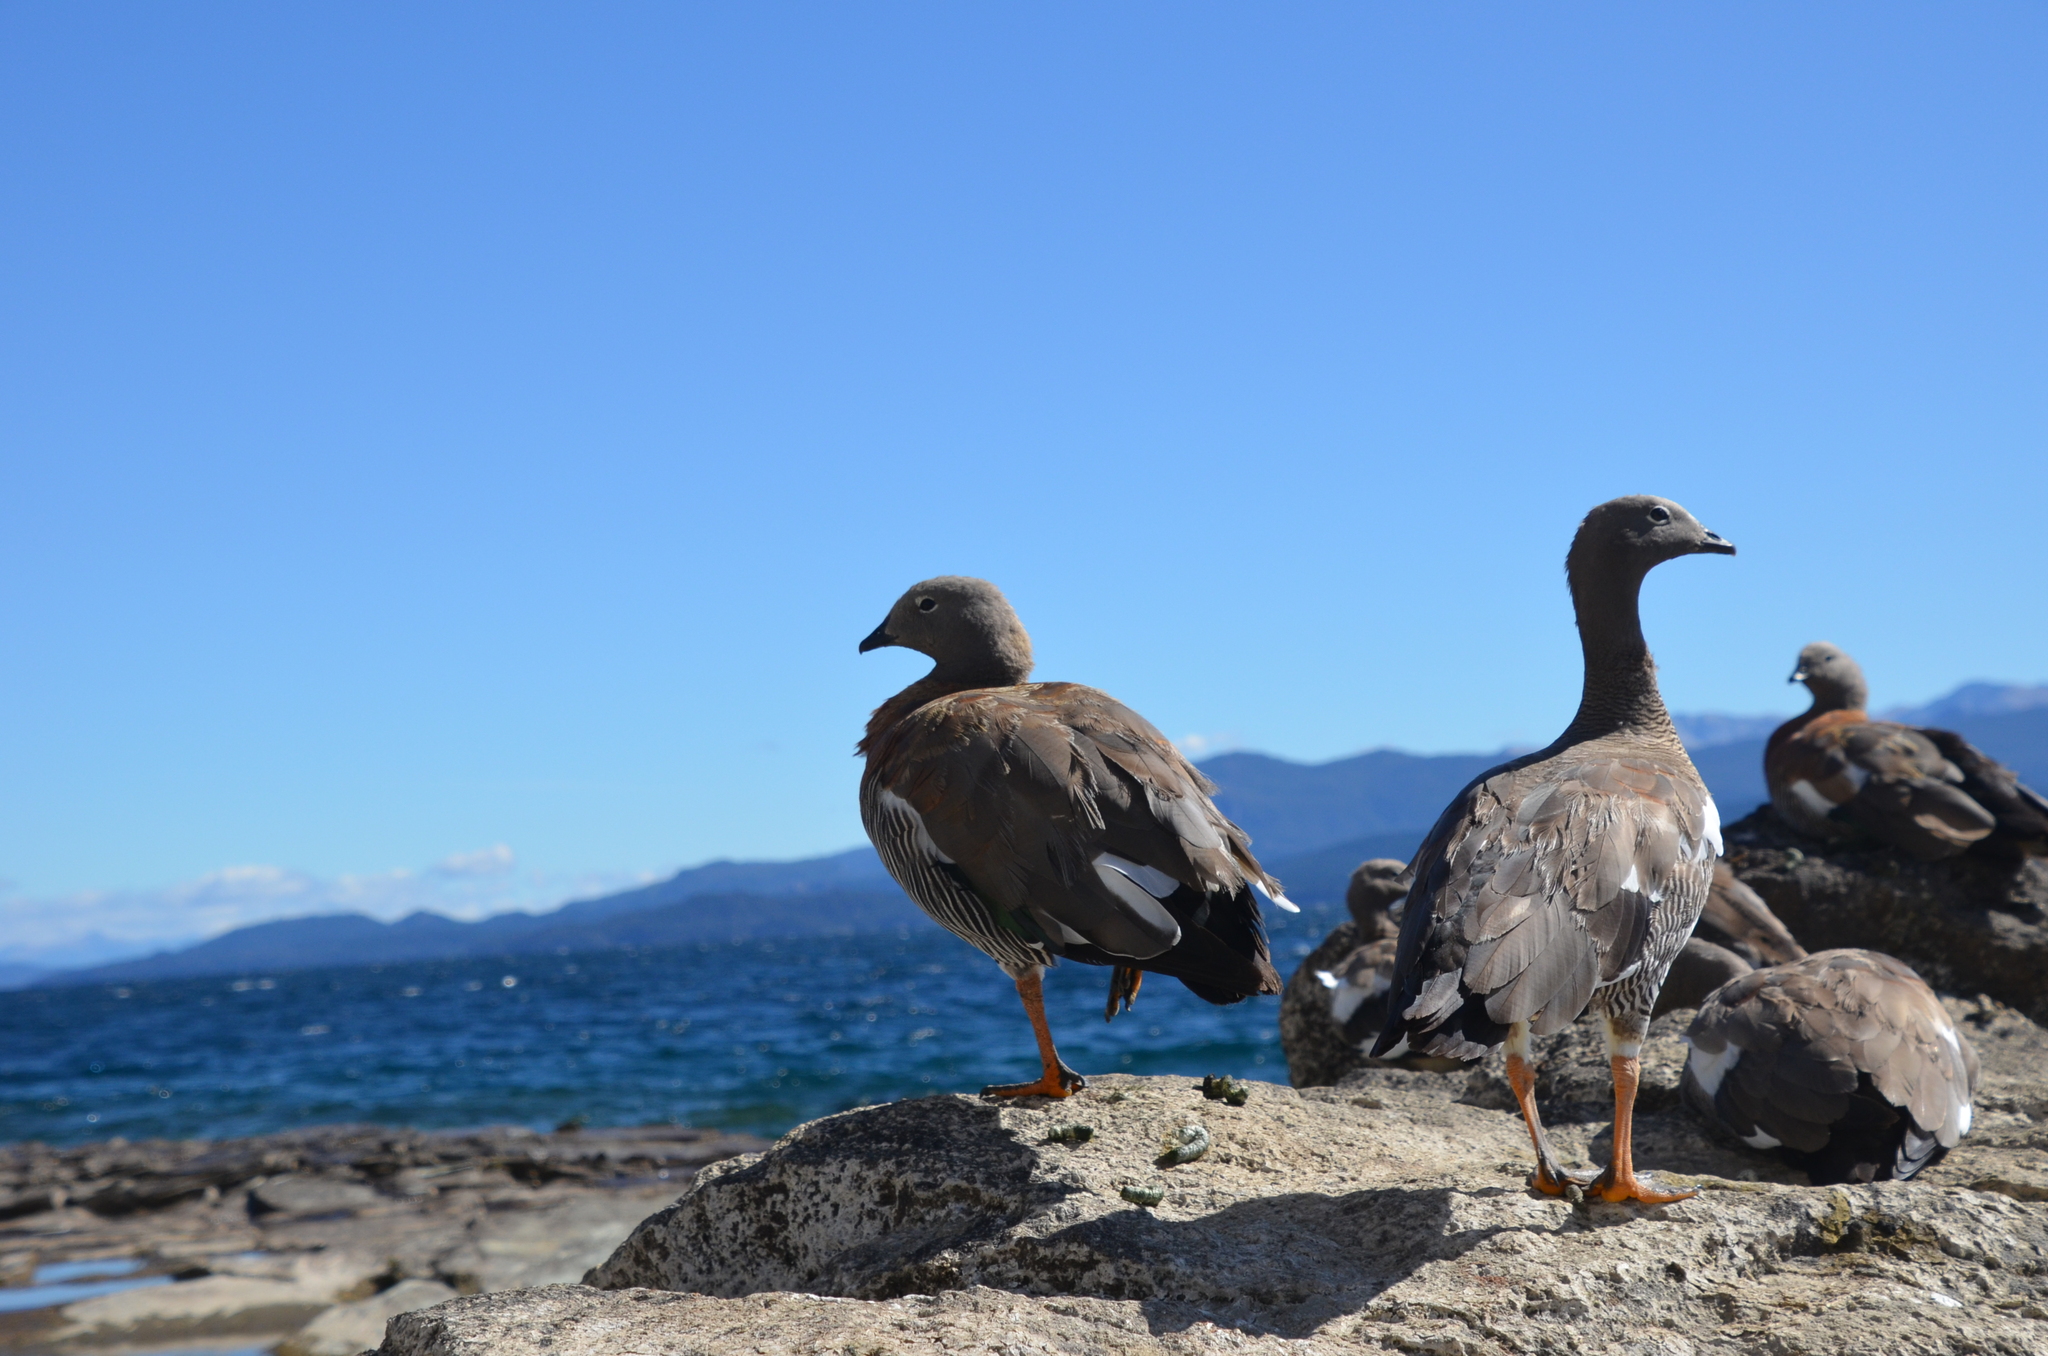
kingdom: Animalia
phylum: Chordata
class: Aves
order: Anseriformes
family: Anatidae
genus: Chloephaga
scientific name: Chloephaga poliocephala
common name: Ashy-headed goose
